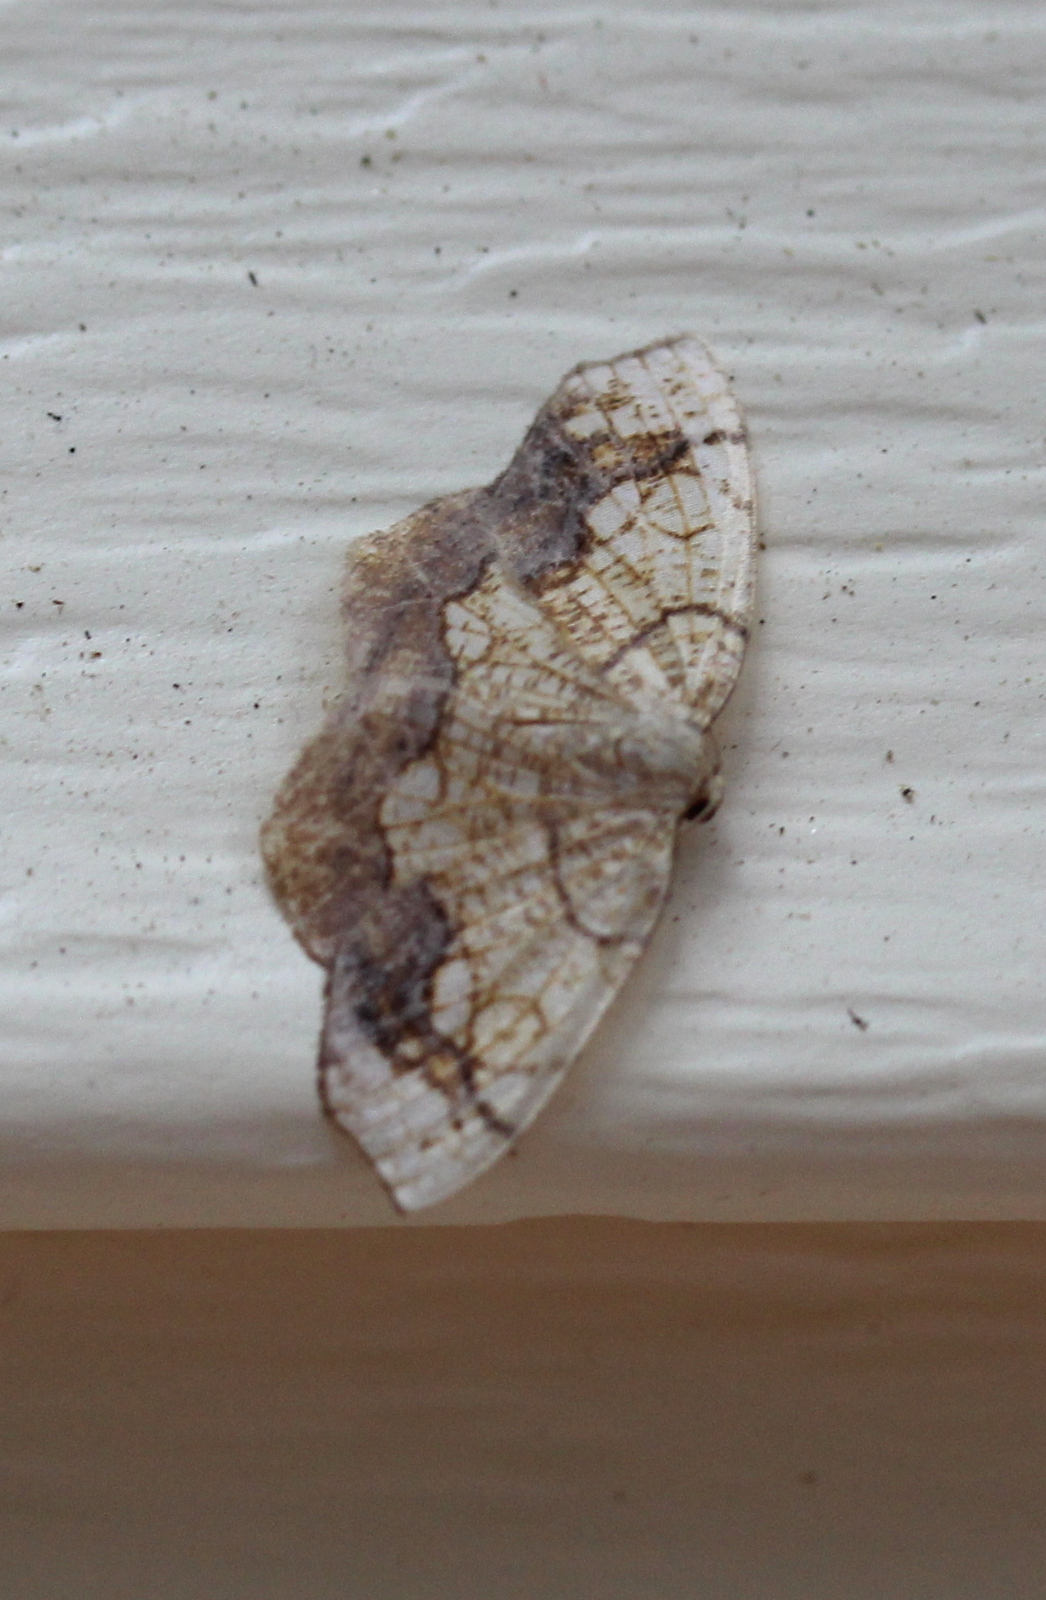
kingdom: Animalia
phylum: Arthropoda
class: Insecta
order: Lepidoptera
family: Geometridae
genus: Nematocampa
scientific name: Nematocampa resistaria
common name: Horned spanworm moth
